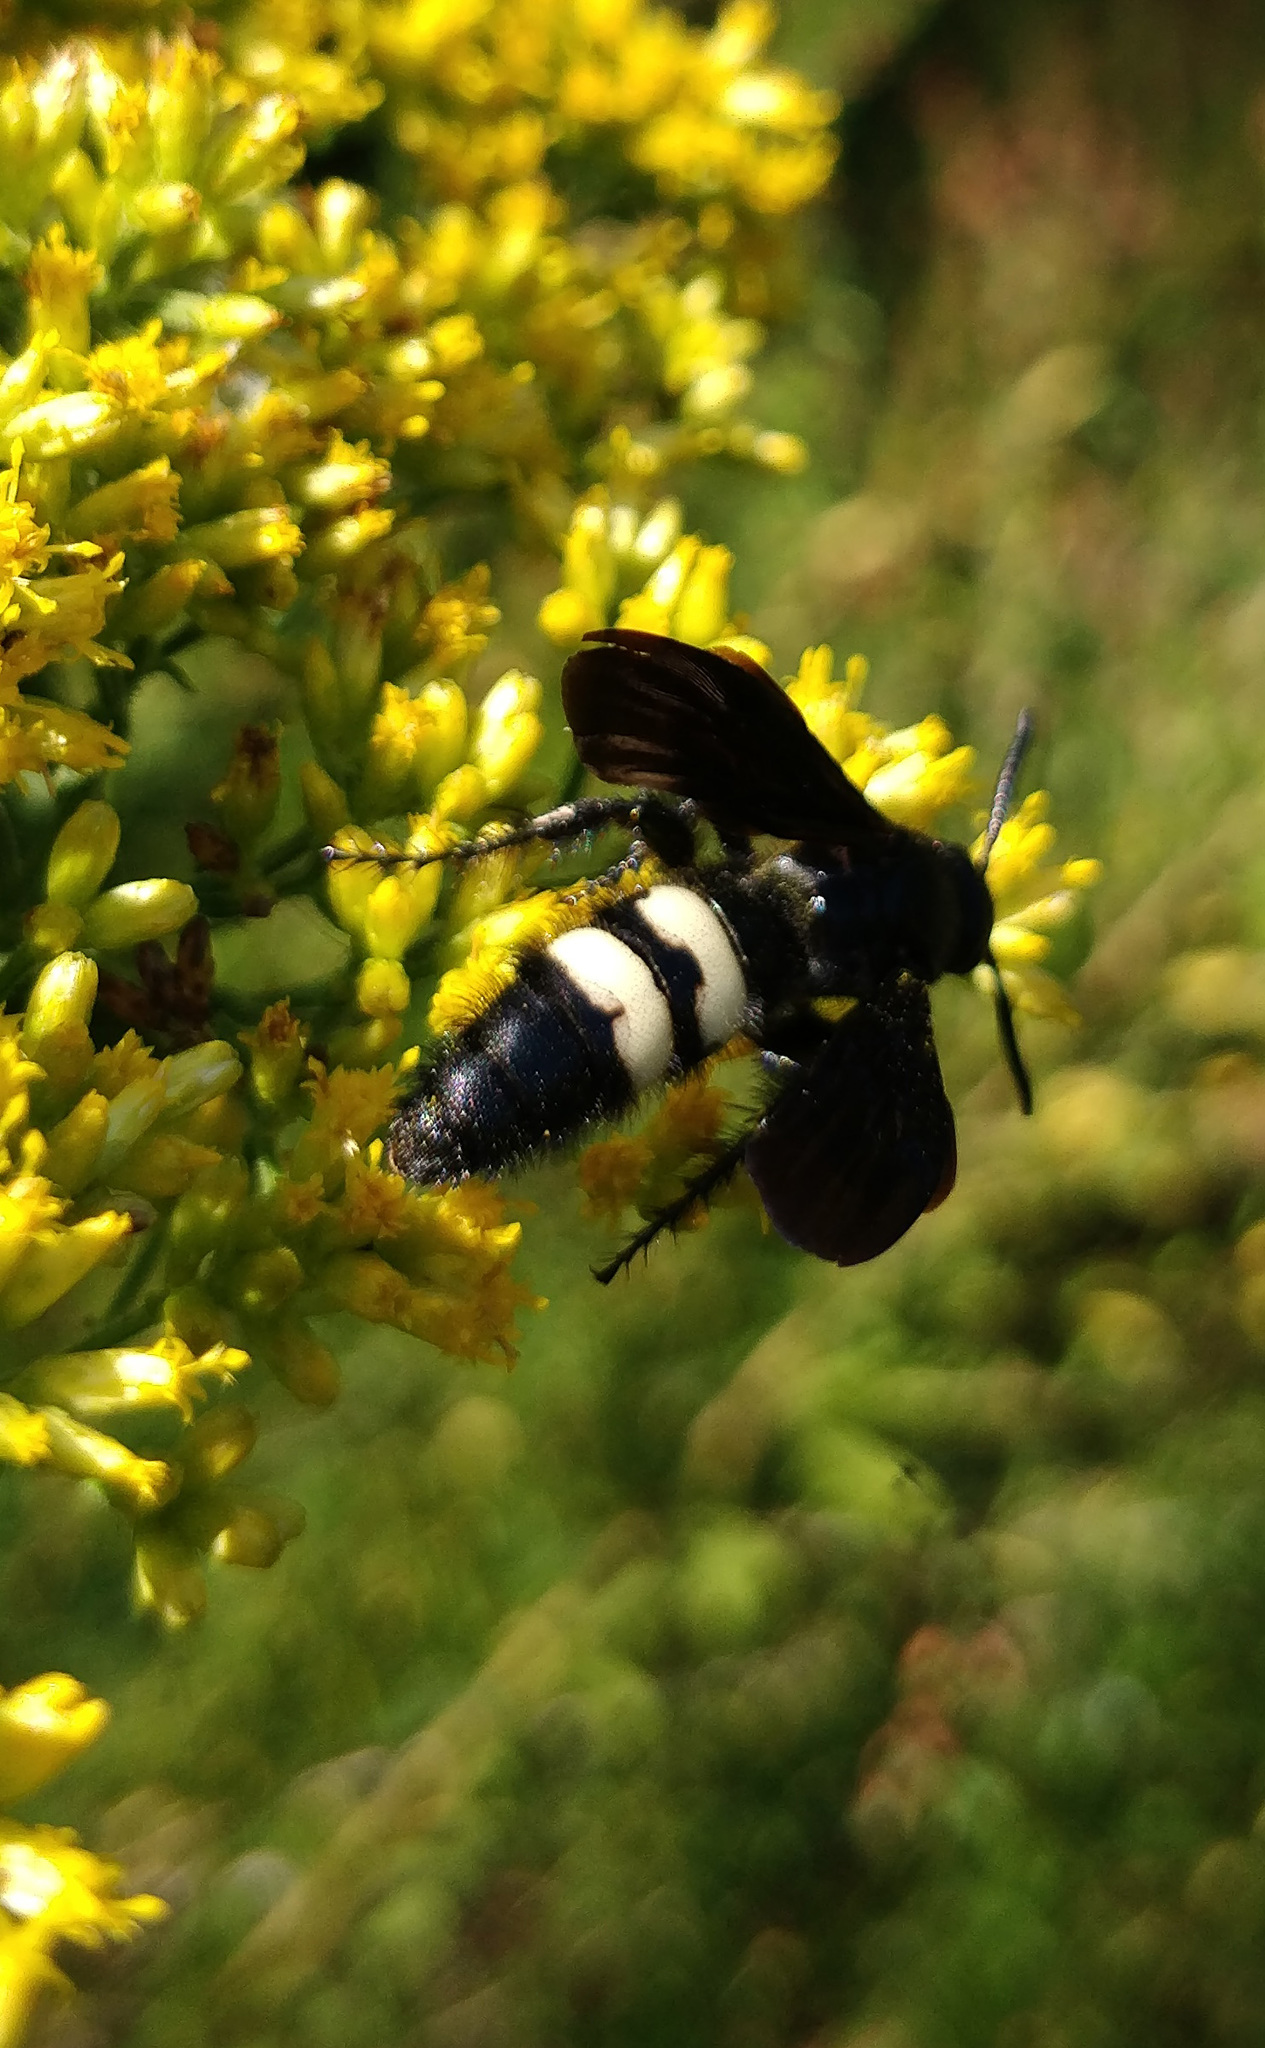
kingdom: Animalia
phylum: Arthropoda
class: Insecta
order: Hymenoptera
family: Scoliidae
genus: Scolia
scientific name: Scolia bicincta
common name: Double-banded scoliid wasp
